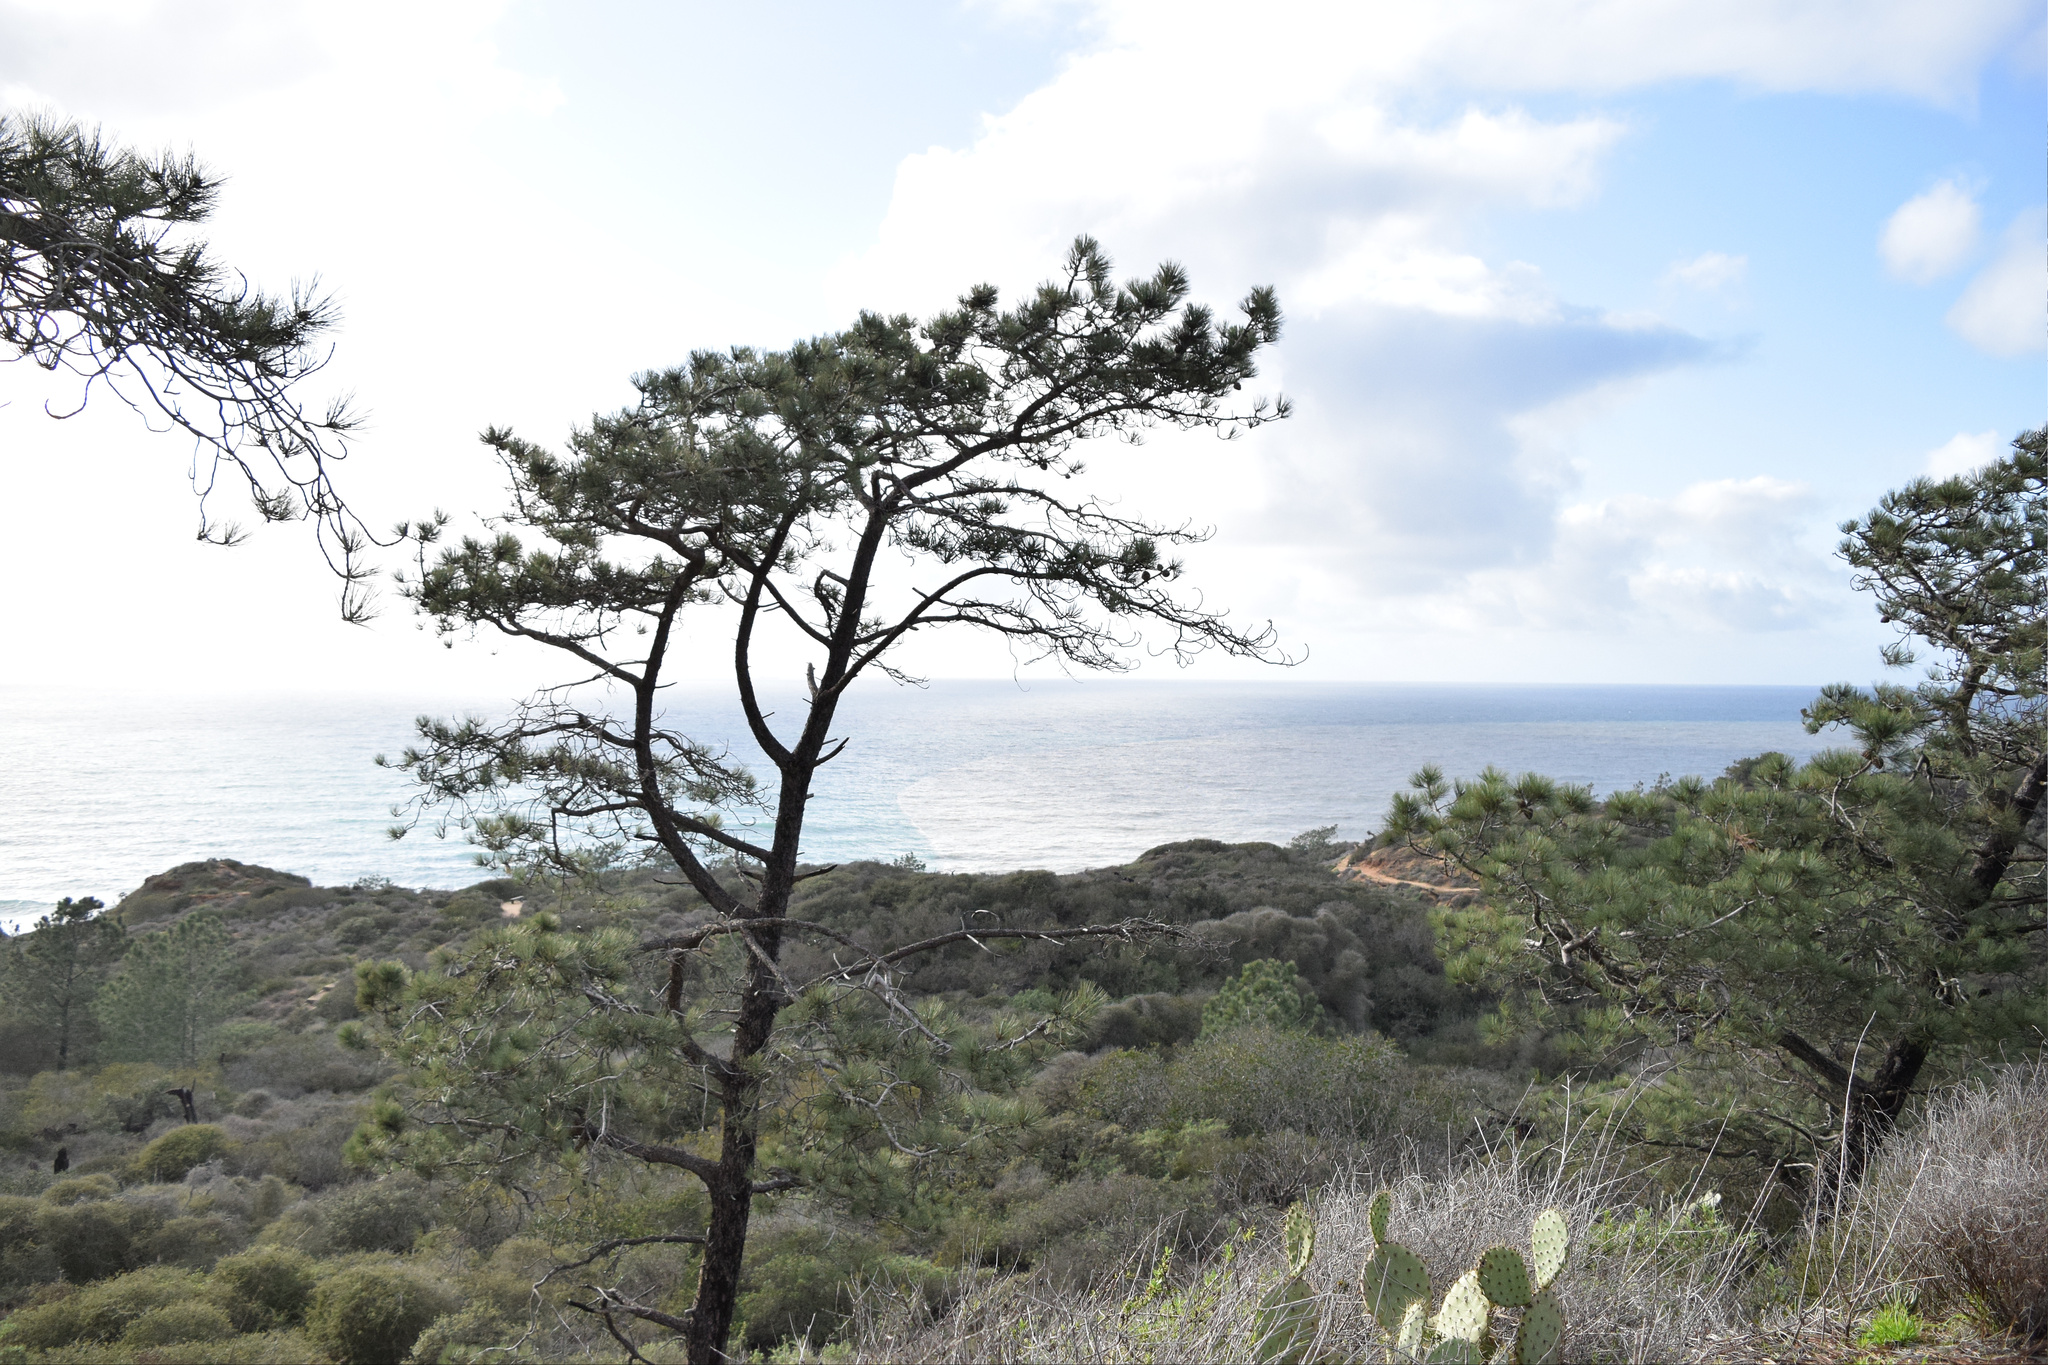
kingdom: Plantae
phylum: Tracheophyta
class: Pinopsida
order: Pinales
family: Pinaceae
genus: Pinus
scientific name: Pinus torreyana
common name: Torrey pine
